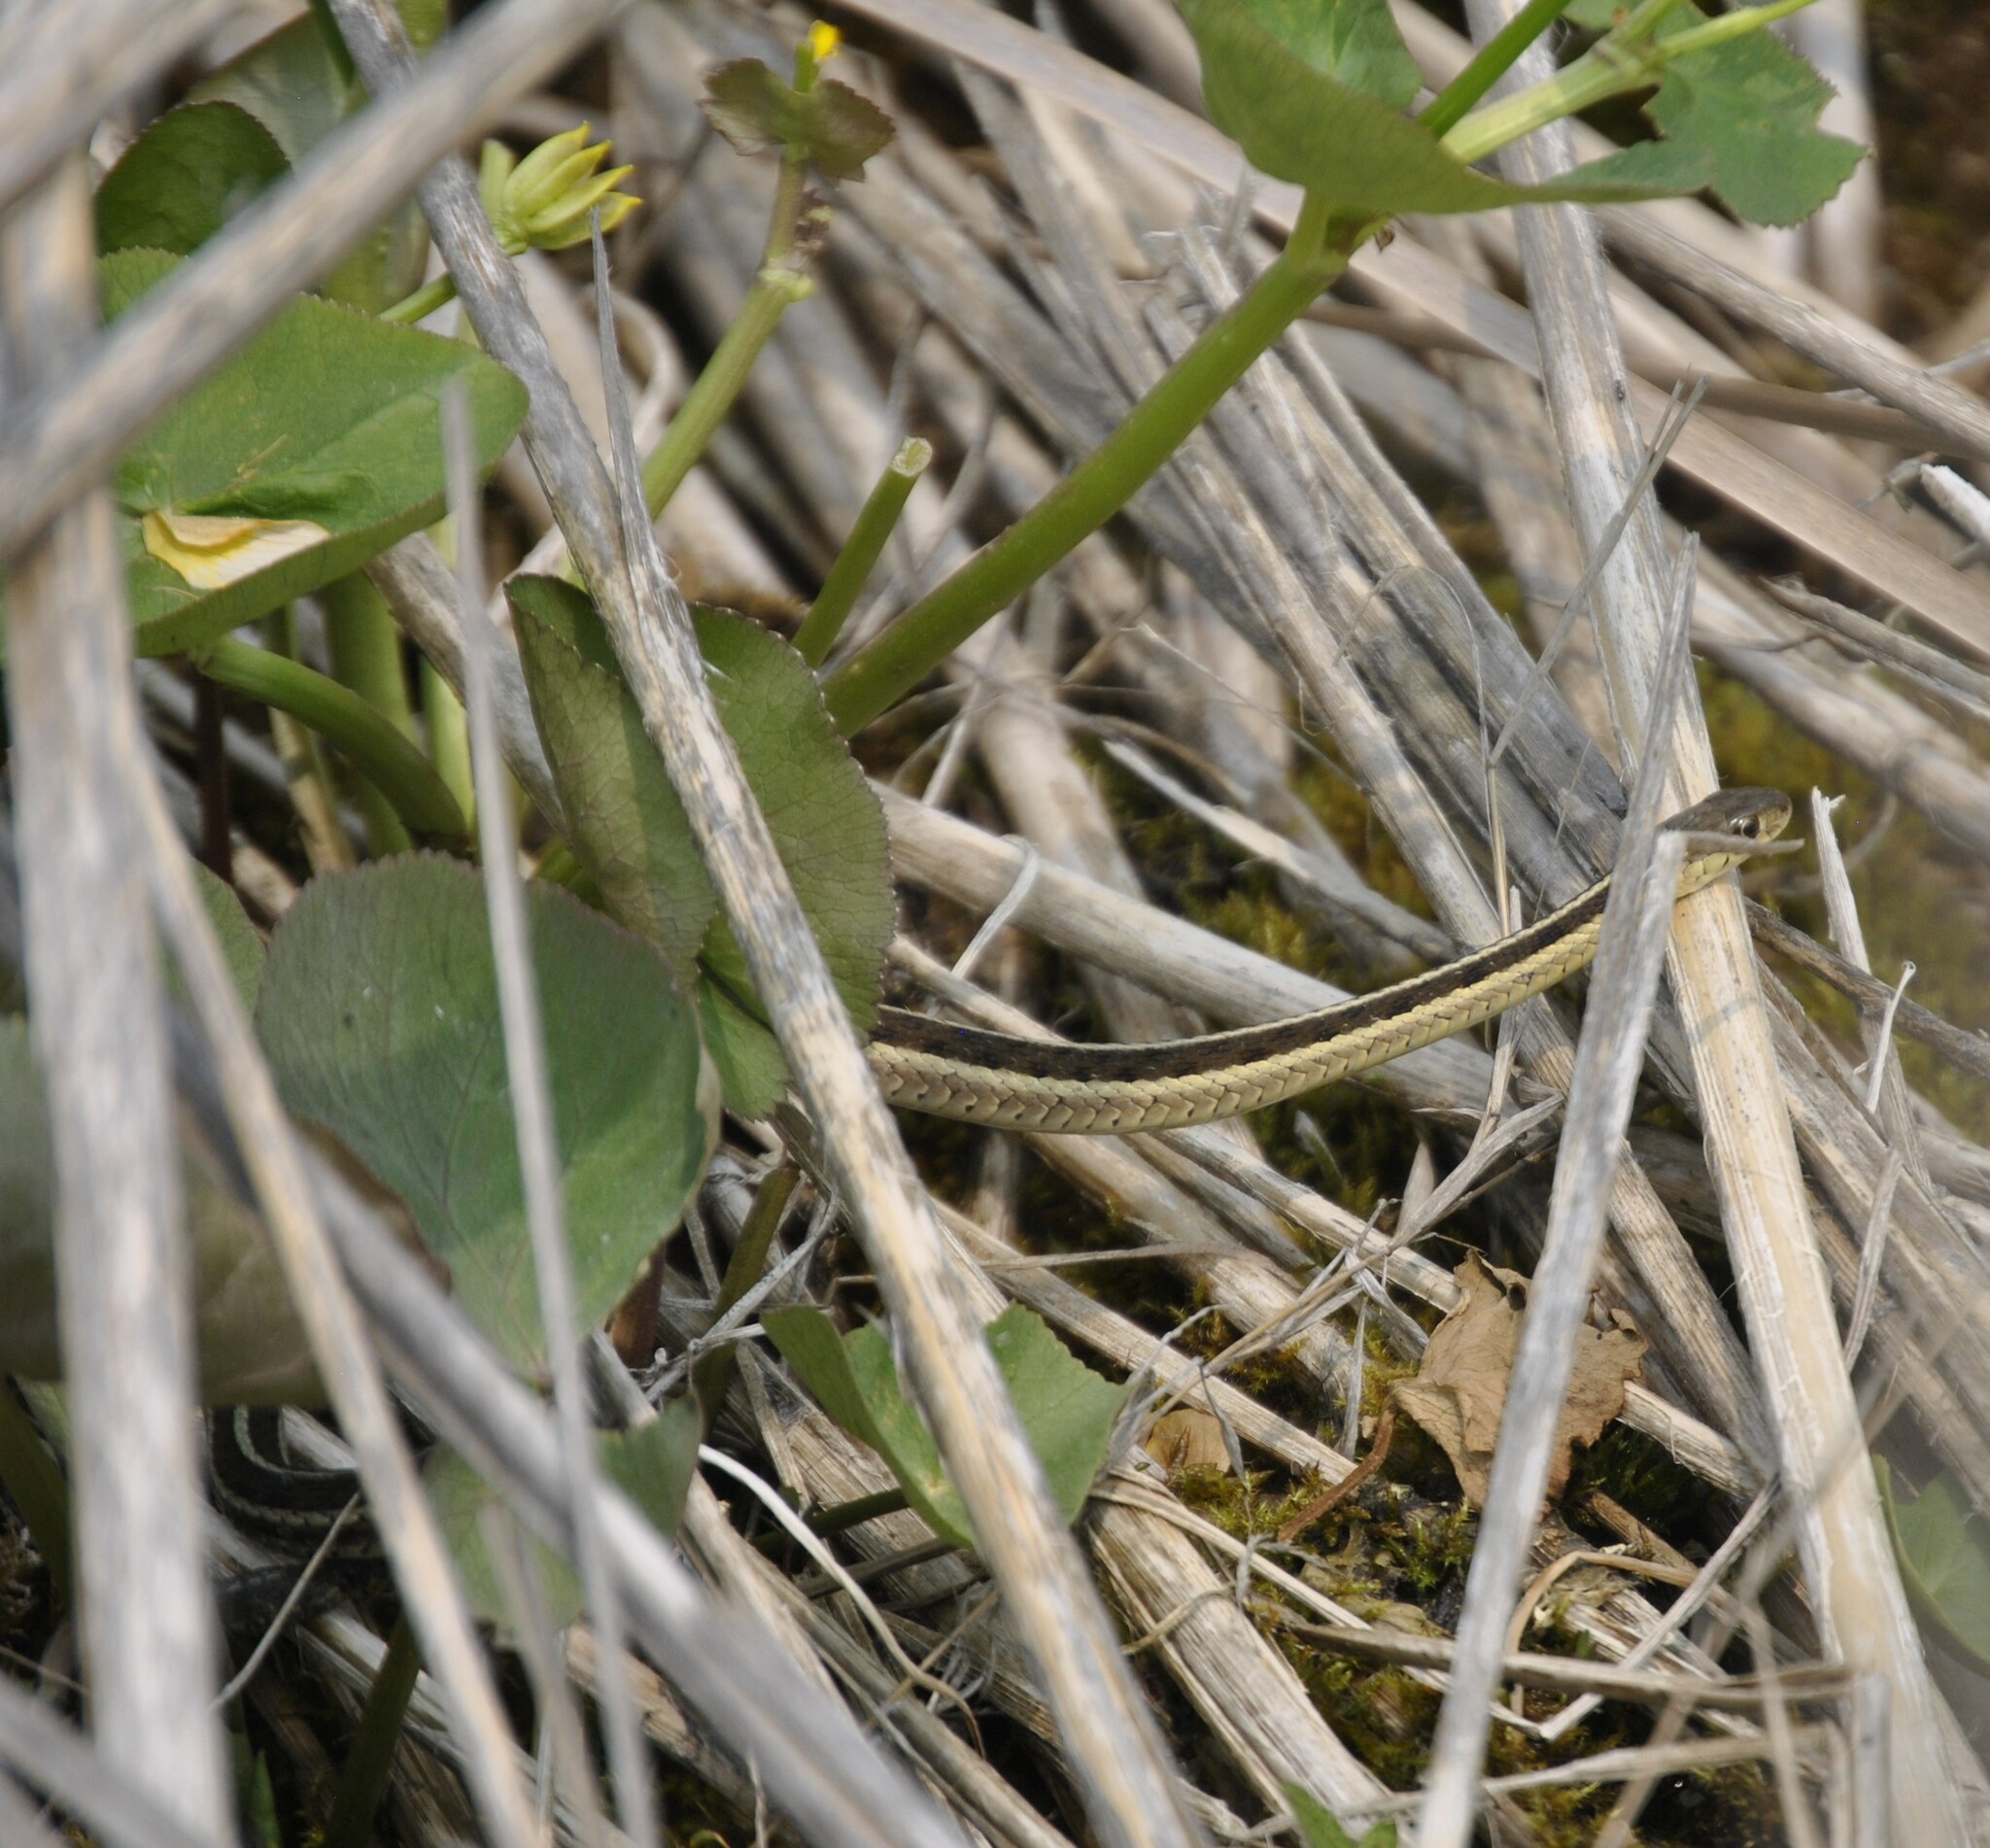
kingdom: Animalia
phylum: Chordata
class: Squamata
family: Colubridae
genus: Thamnophis
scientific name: Thamnophis sirtalis
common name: Common garter snake
